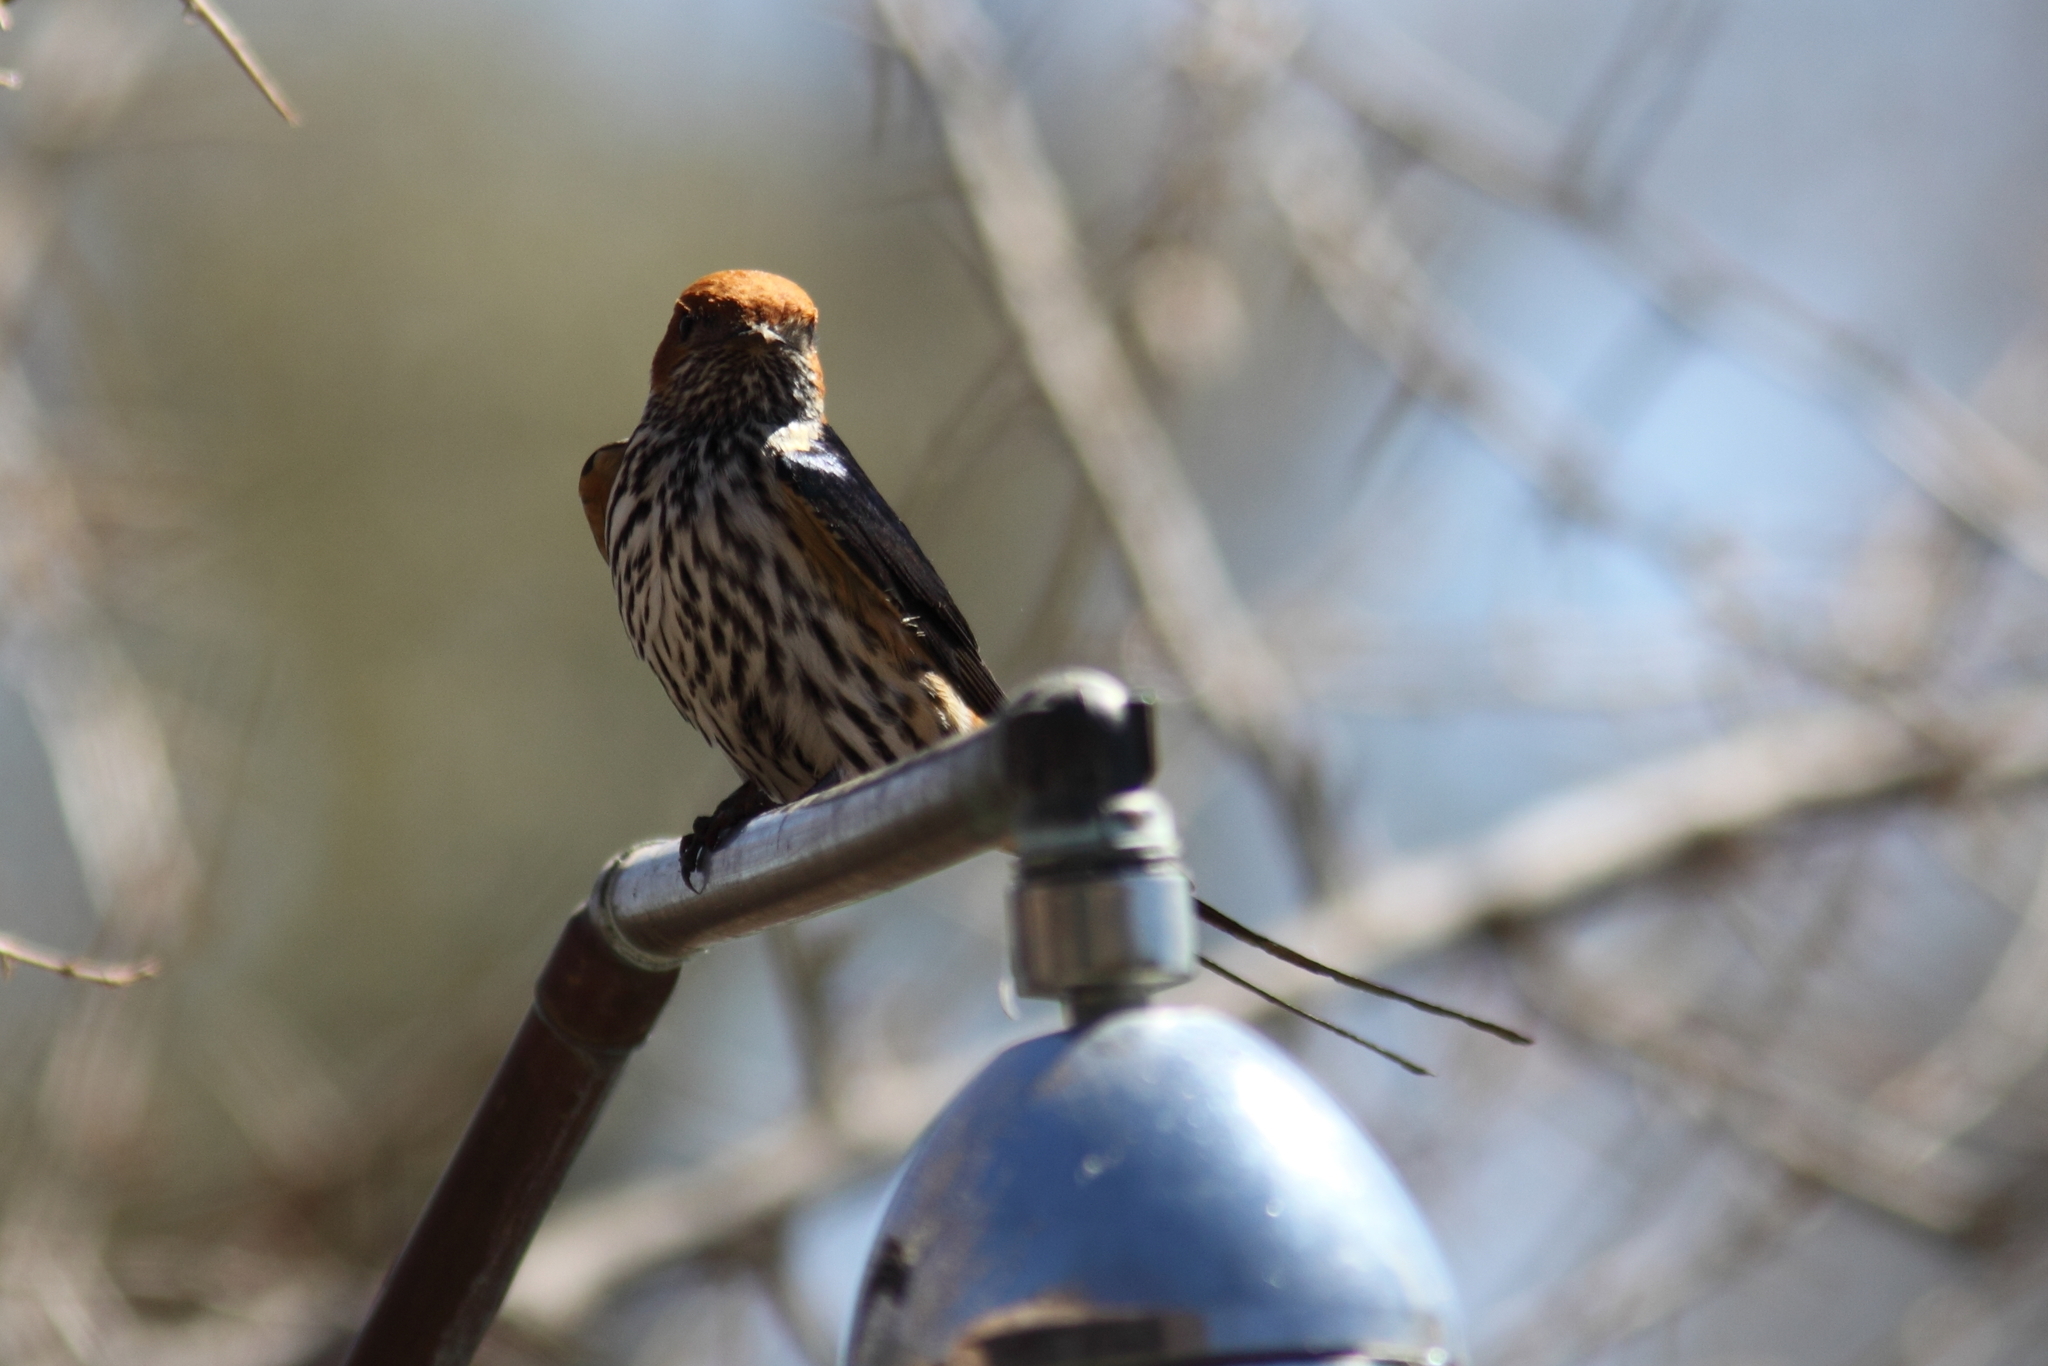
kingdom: Animalia
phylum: Chordata
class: Aves
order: Passeriformes
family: Hirundinidae
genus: Cecropis
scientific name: Cecropis abyssinica
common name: Lesser striped-swallow
